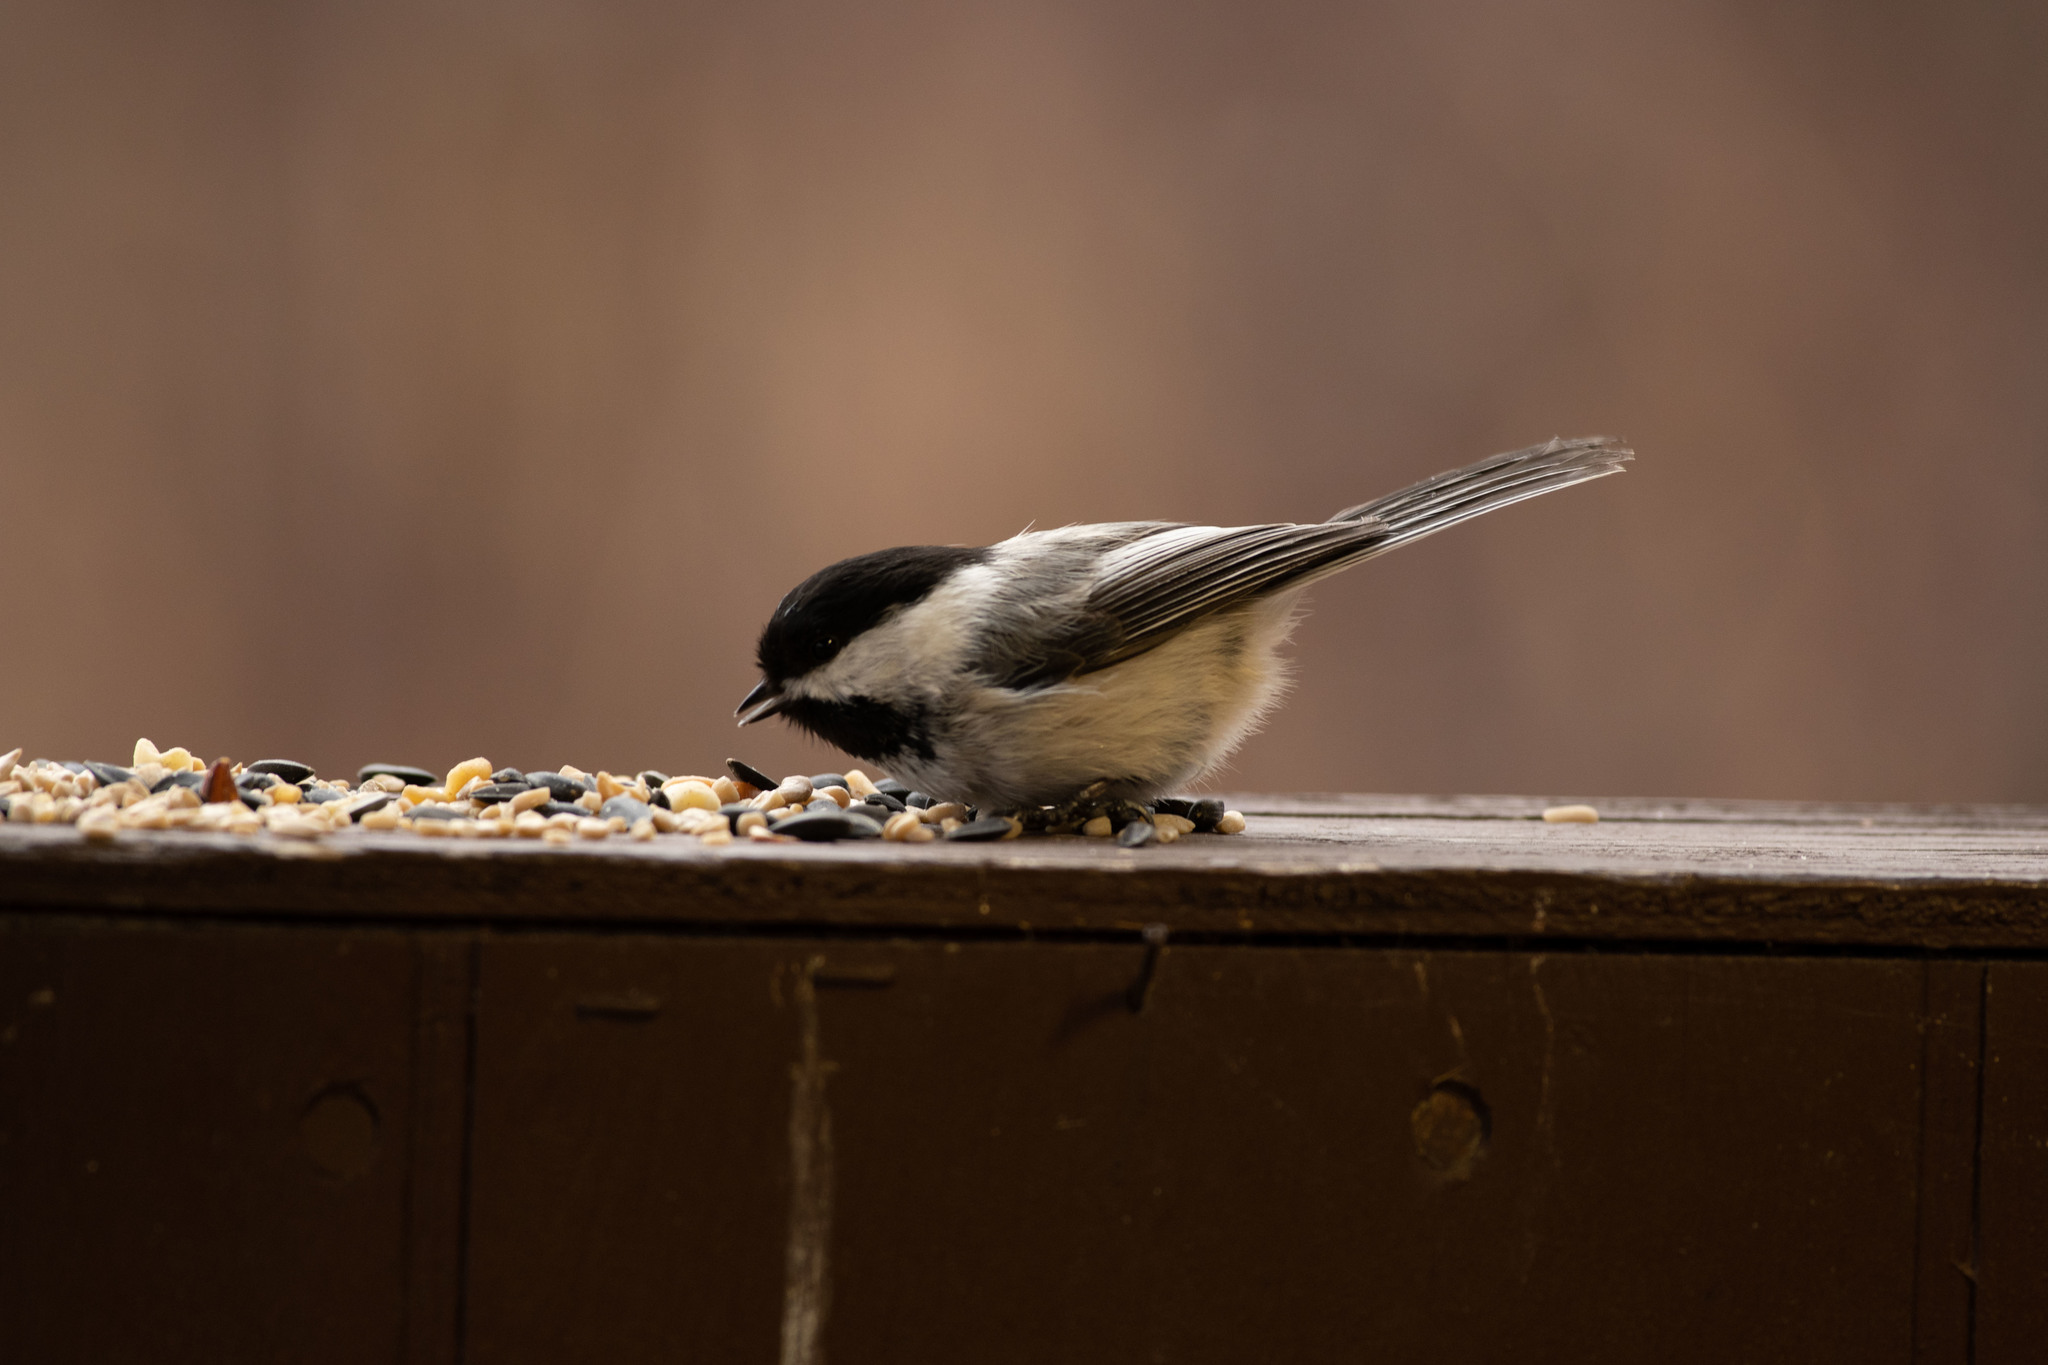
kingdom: Animalia
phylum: Chordata
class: Aves
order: Passeriformes
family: Paridae
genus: Poecile
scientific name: Poecile atricapillus
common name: Black-capped chickadee
